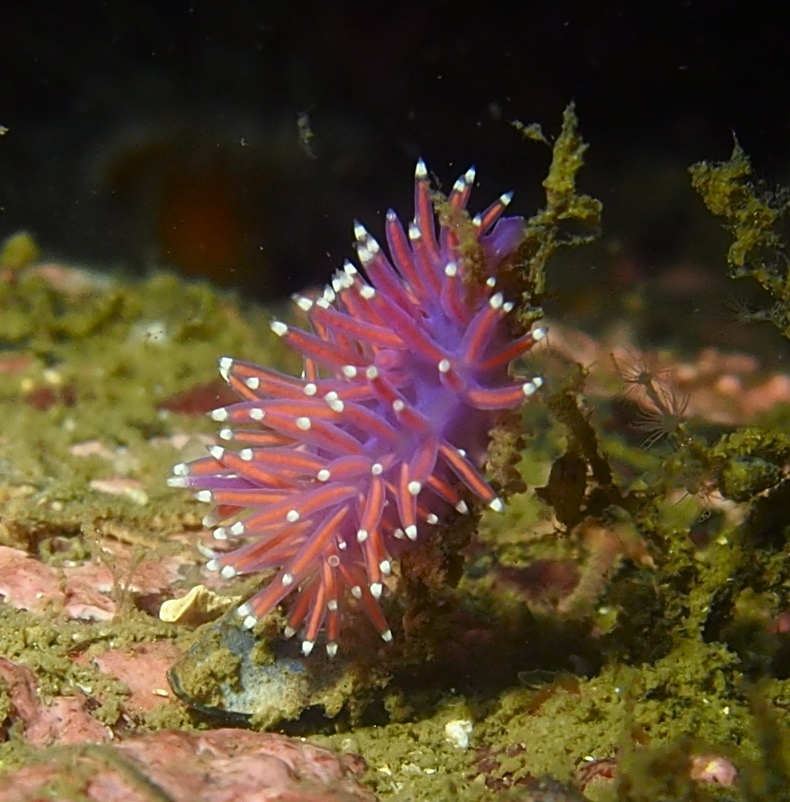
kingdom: Animalia
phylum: Mollusca
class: Gastropoda
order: Nudibranchia
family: Flabellinidae
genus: Edmundsella
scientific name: Edmundsella pedata
